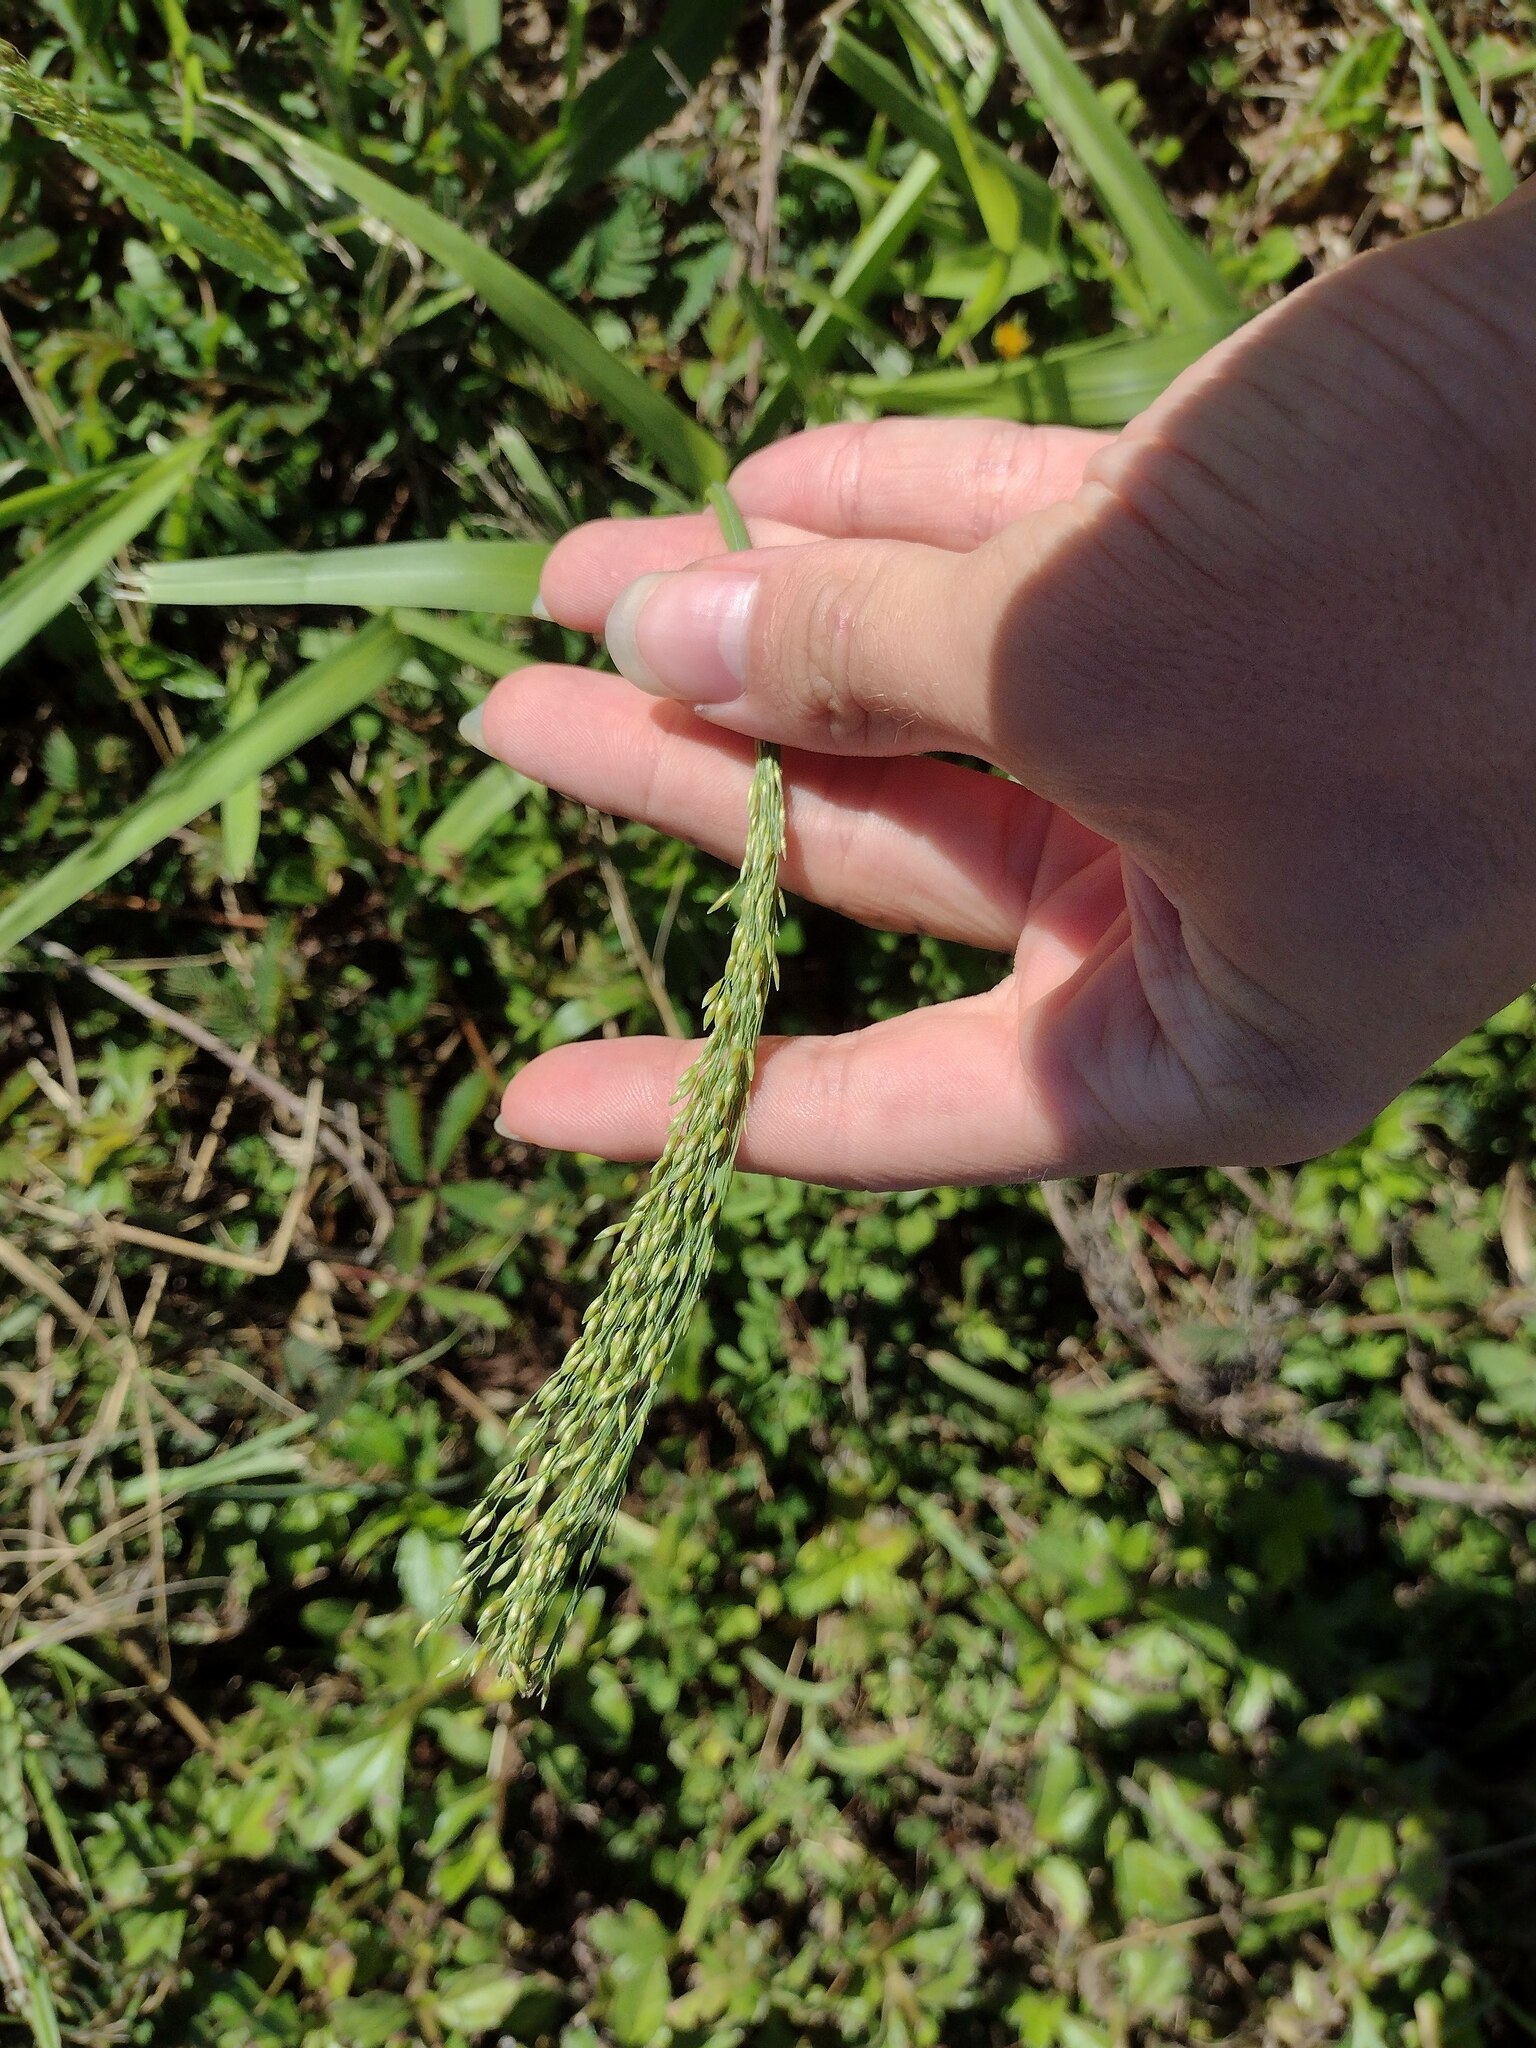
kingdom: Plantae
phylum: Tracheophyta
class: Liliopsida
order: Poales
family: Poaceae
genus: Megathyrsus
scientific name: Megathyrsus maximus
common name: Guineagrass
